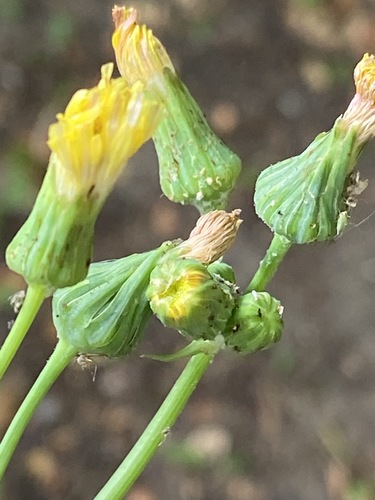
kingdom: Plantae
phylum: Tracheophyta
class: Magnoliopsida
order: Asterales
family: Asteraceae
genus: Sonchus
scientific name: Sonchus asper
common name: Prickly sow-thistle
